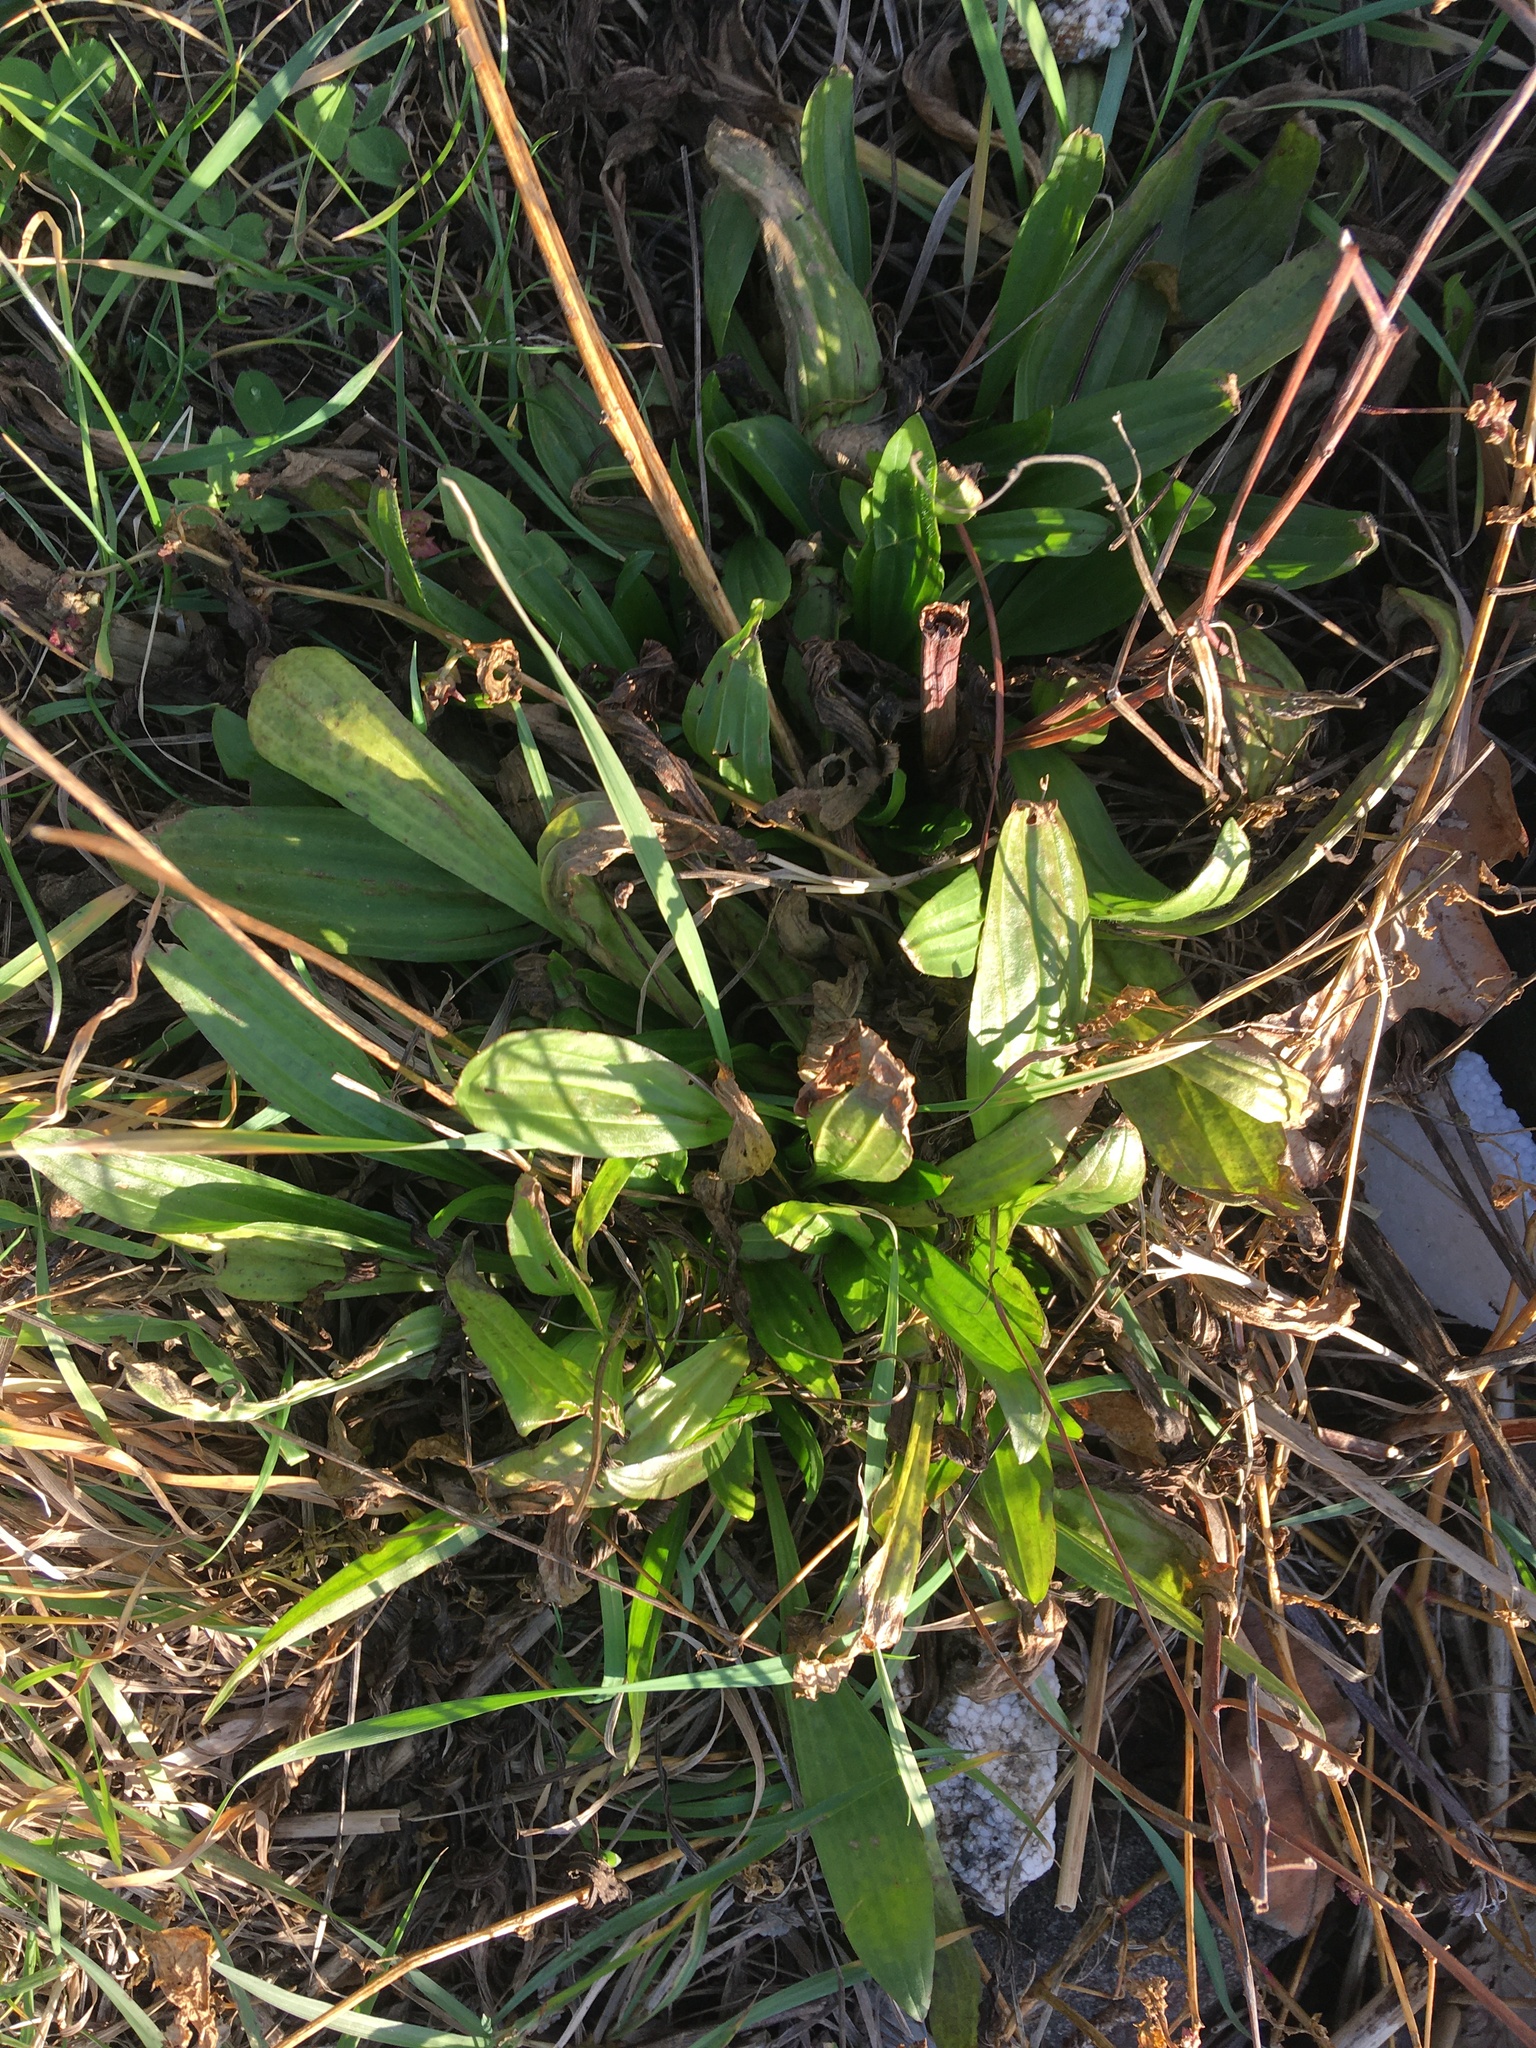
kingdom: Plantae
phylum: Tracheophyta
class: Magnoliopsida
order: Lamiales
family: Plantaginaceae
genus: Plantago
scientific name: Plantago lanceolata
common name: Ribwort plantain
